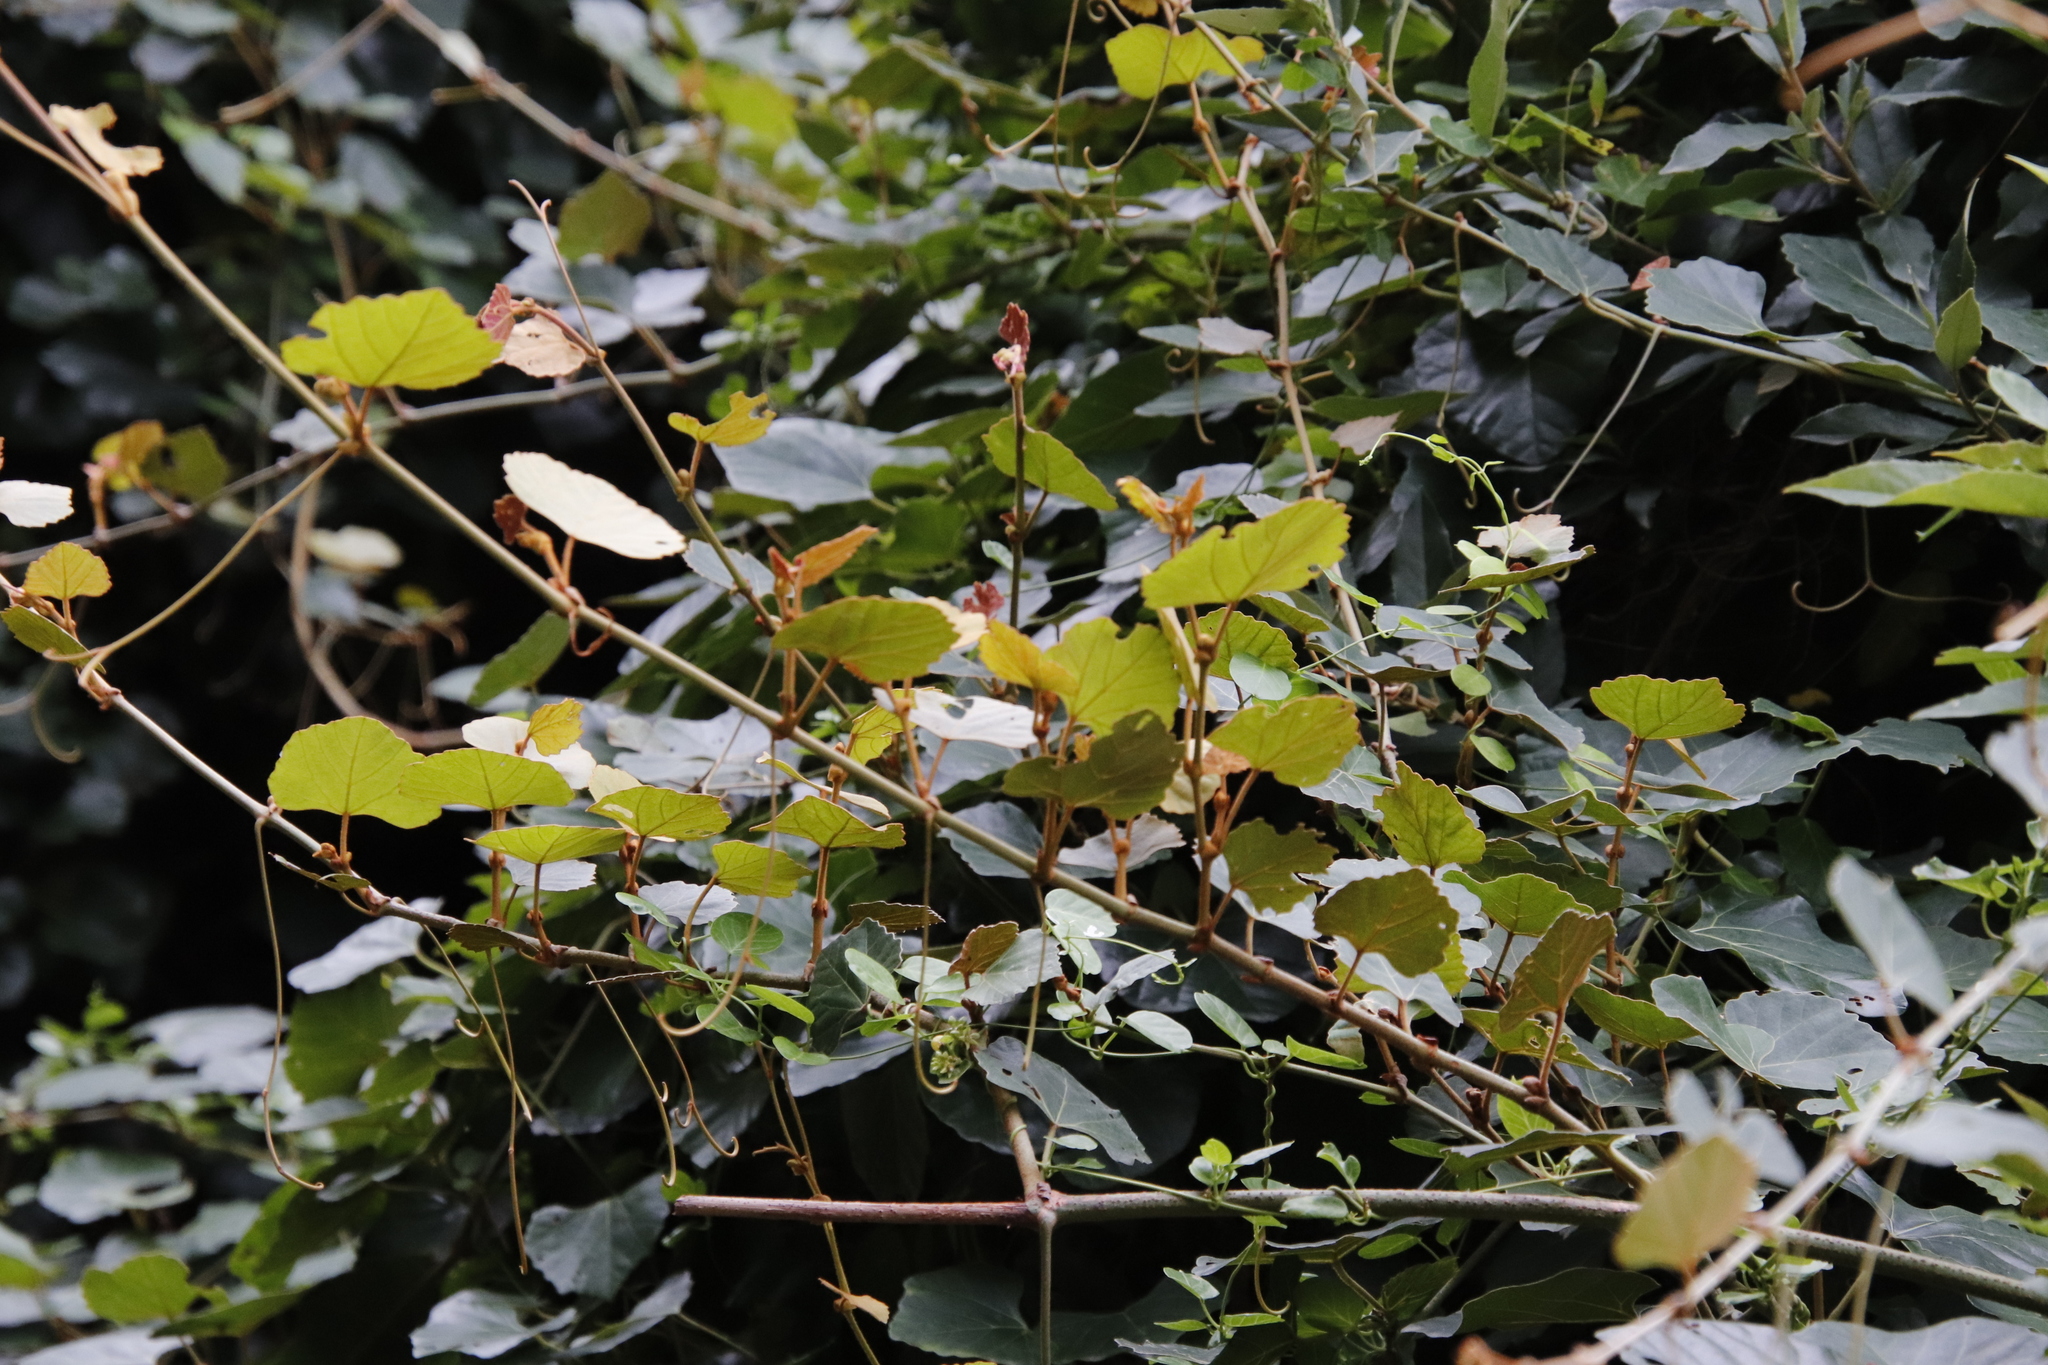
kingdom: Plantae
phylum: Tracheophyta
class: Magnoliopsida
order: Vitales
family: Vitaceae
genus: Rhoicissus
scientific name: Rhoicissus tomentosa
